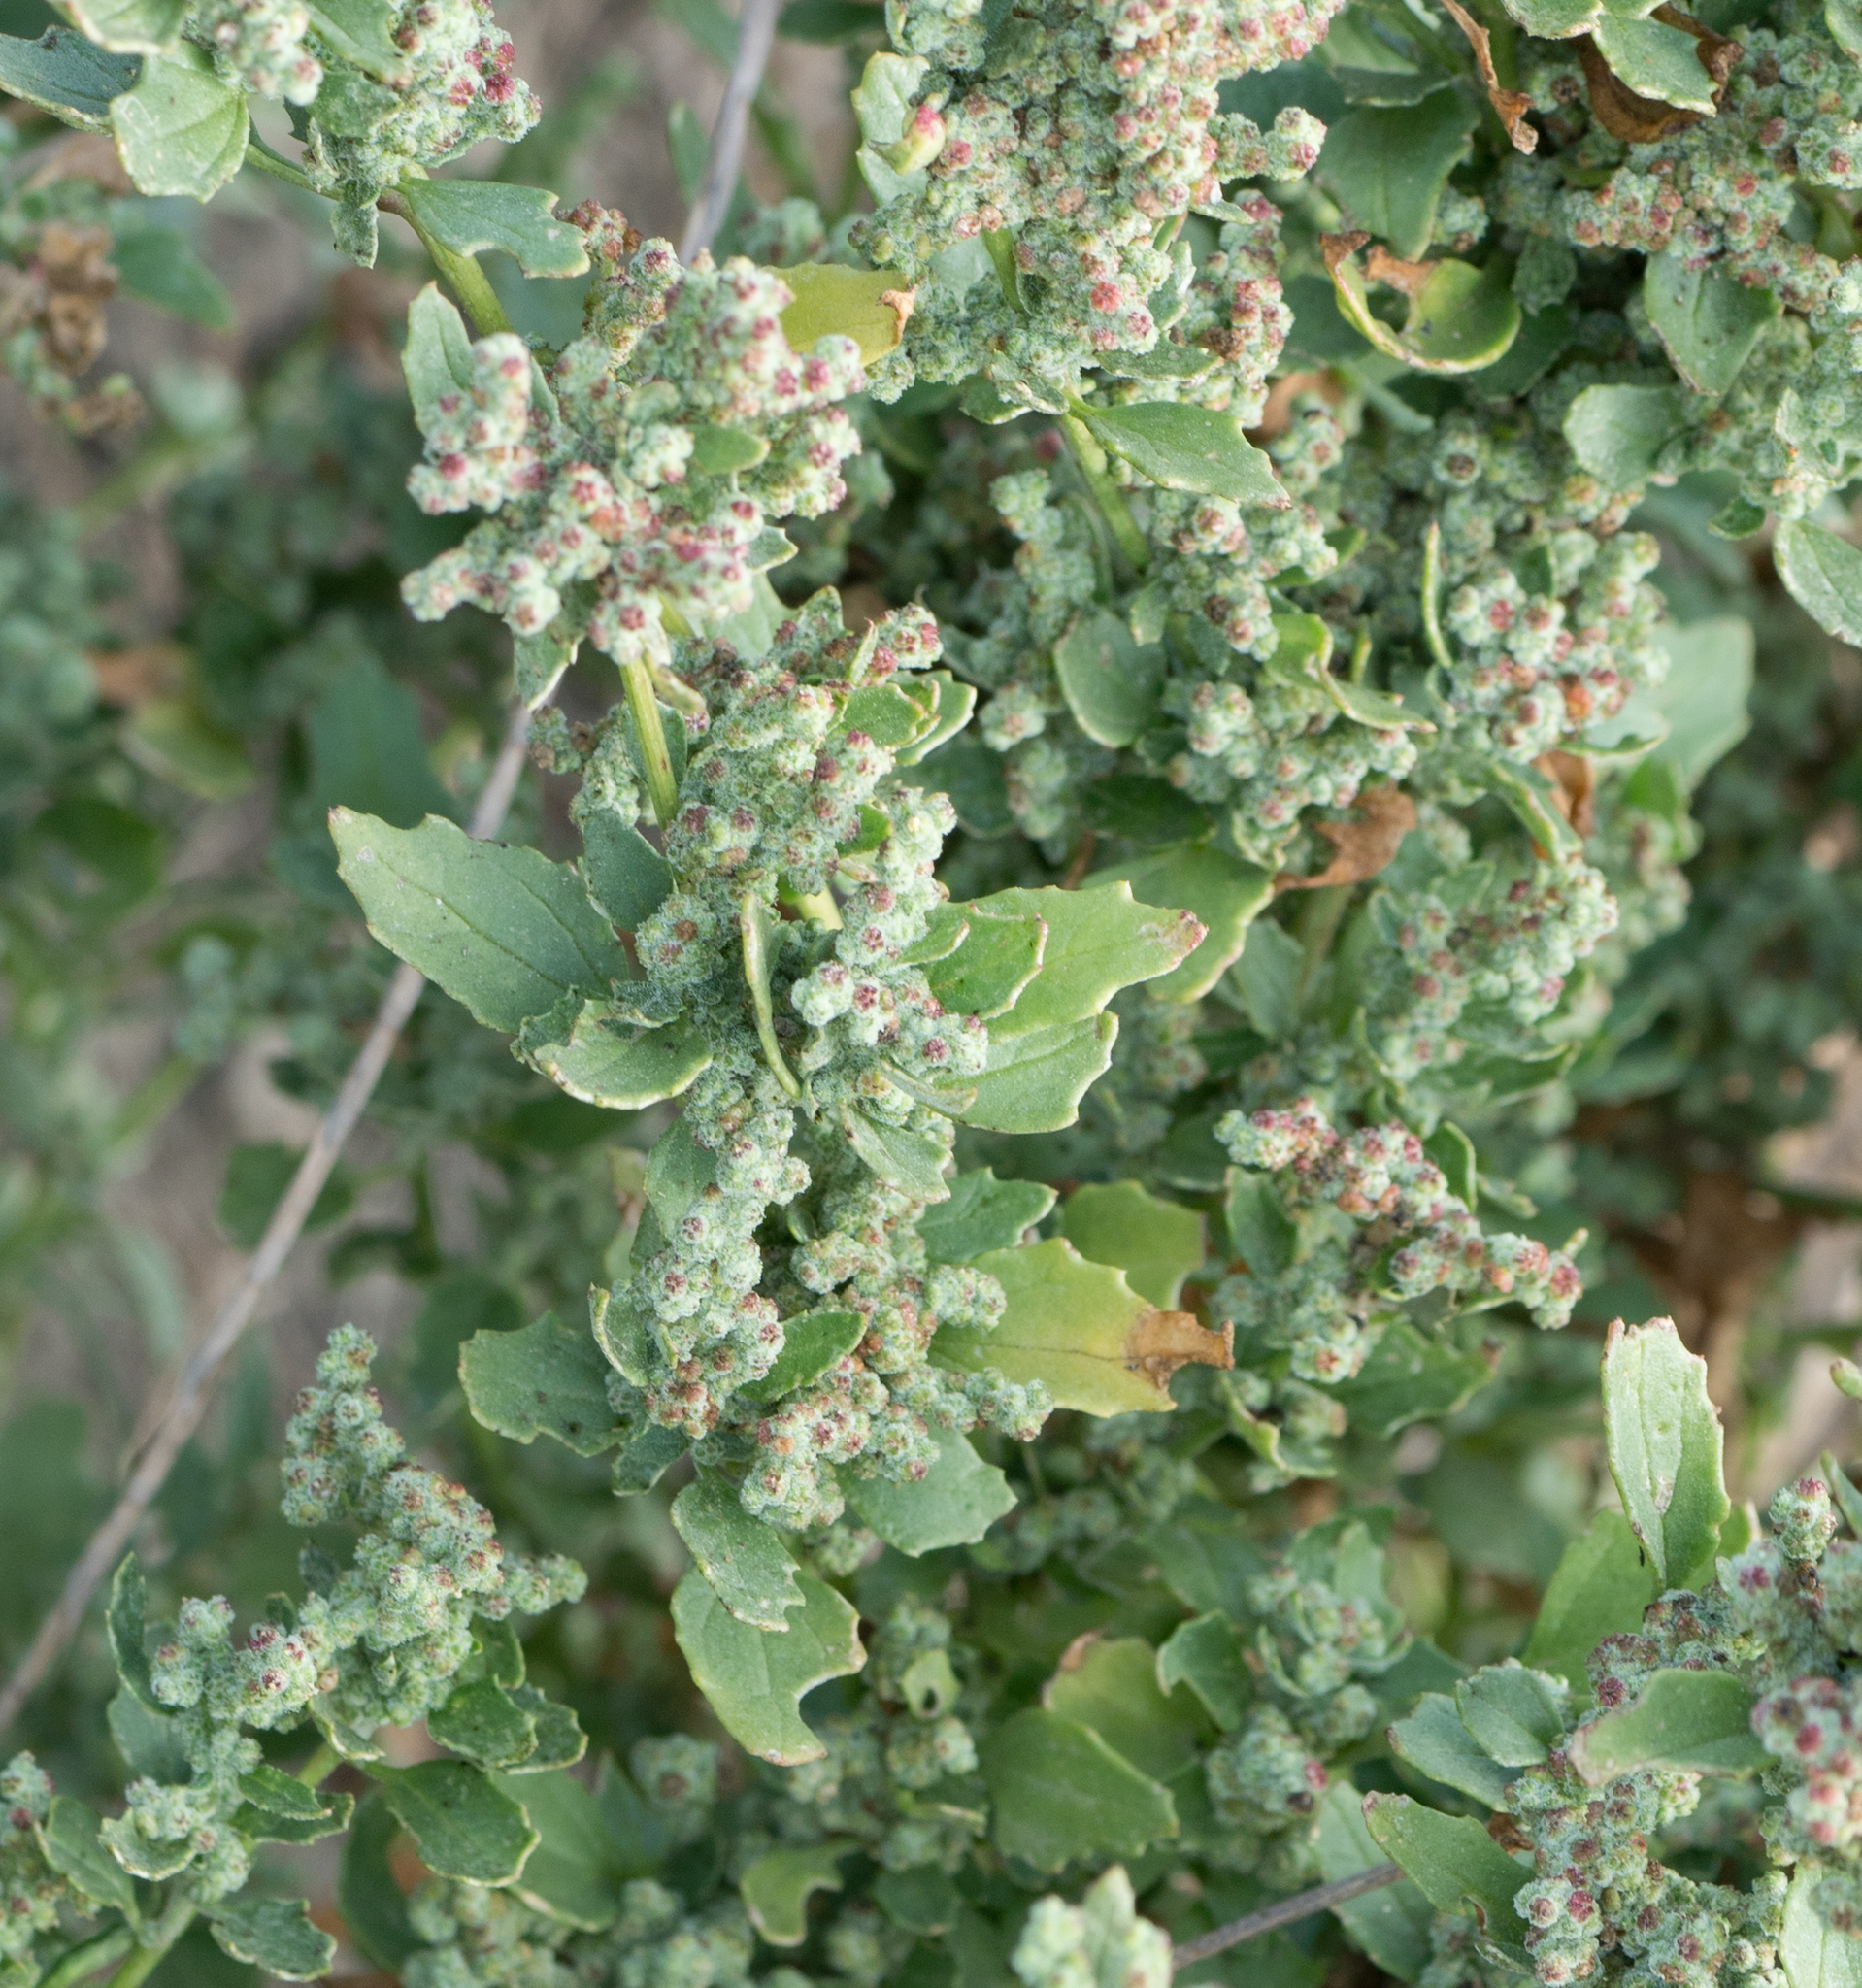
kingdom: Plantae
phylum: Tracheophyta
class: Magnoliopsida
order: Caryophyllales
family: Amaranthaceae
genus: Chenopodiastrum
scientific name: Chenopodiastrum murale
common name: Sowbane
